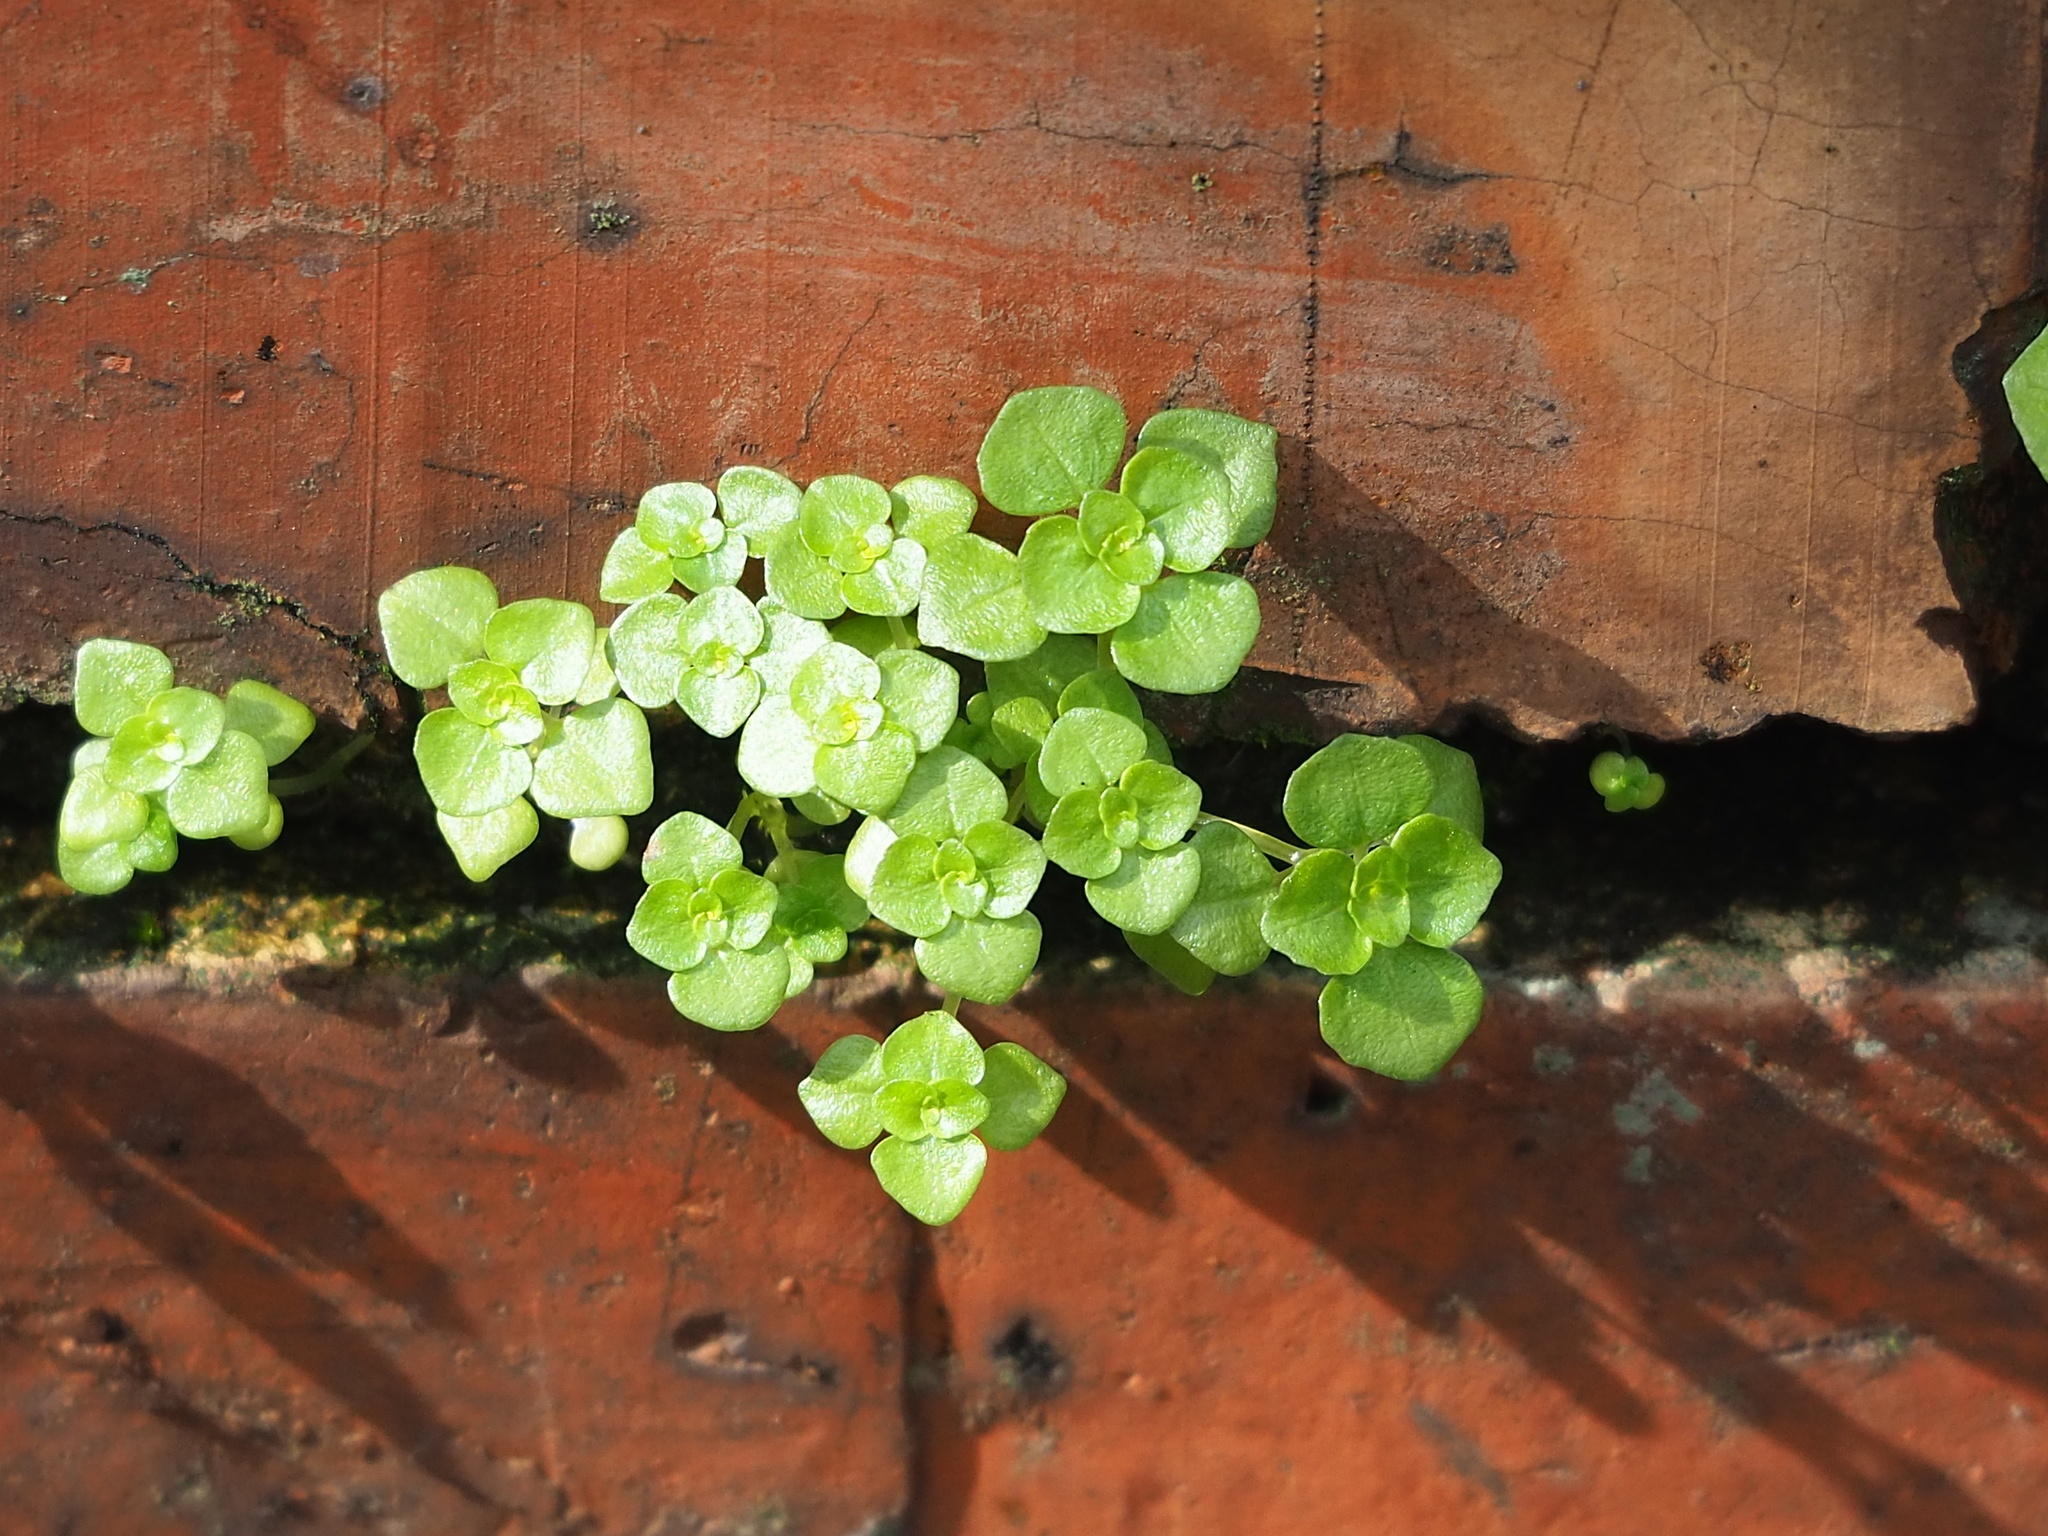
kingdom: Plantae
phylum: Tracheophyta
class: Magnoliopsida
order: Rosales
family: Urticaceae
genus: Pilea
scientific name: Pilea peploides
